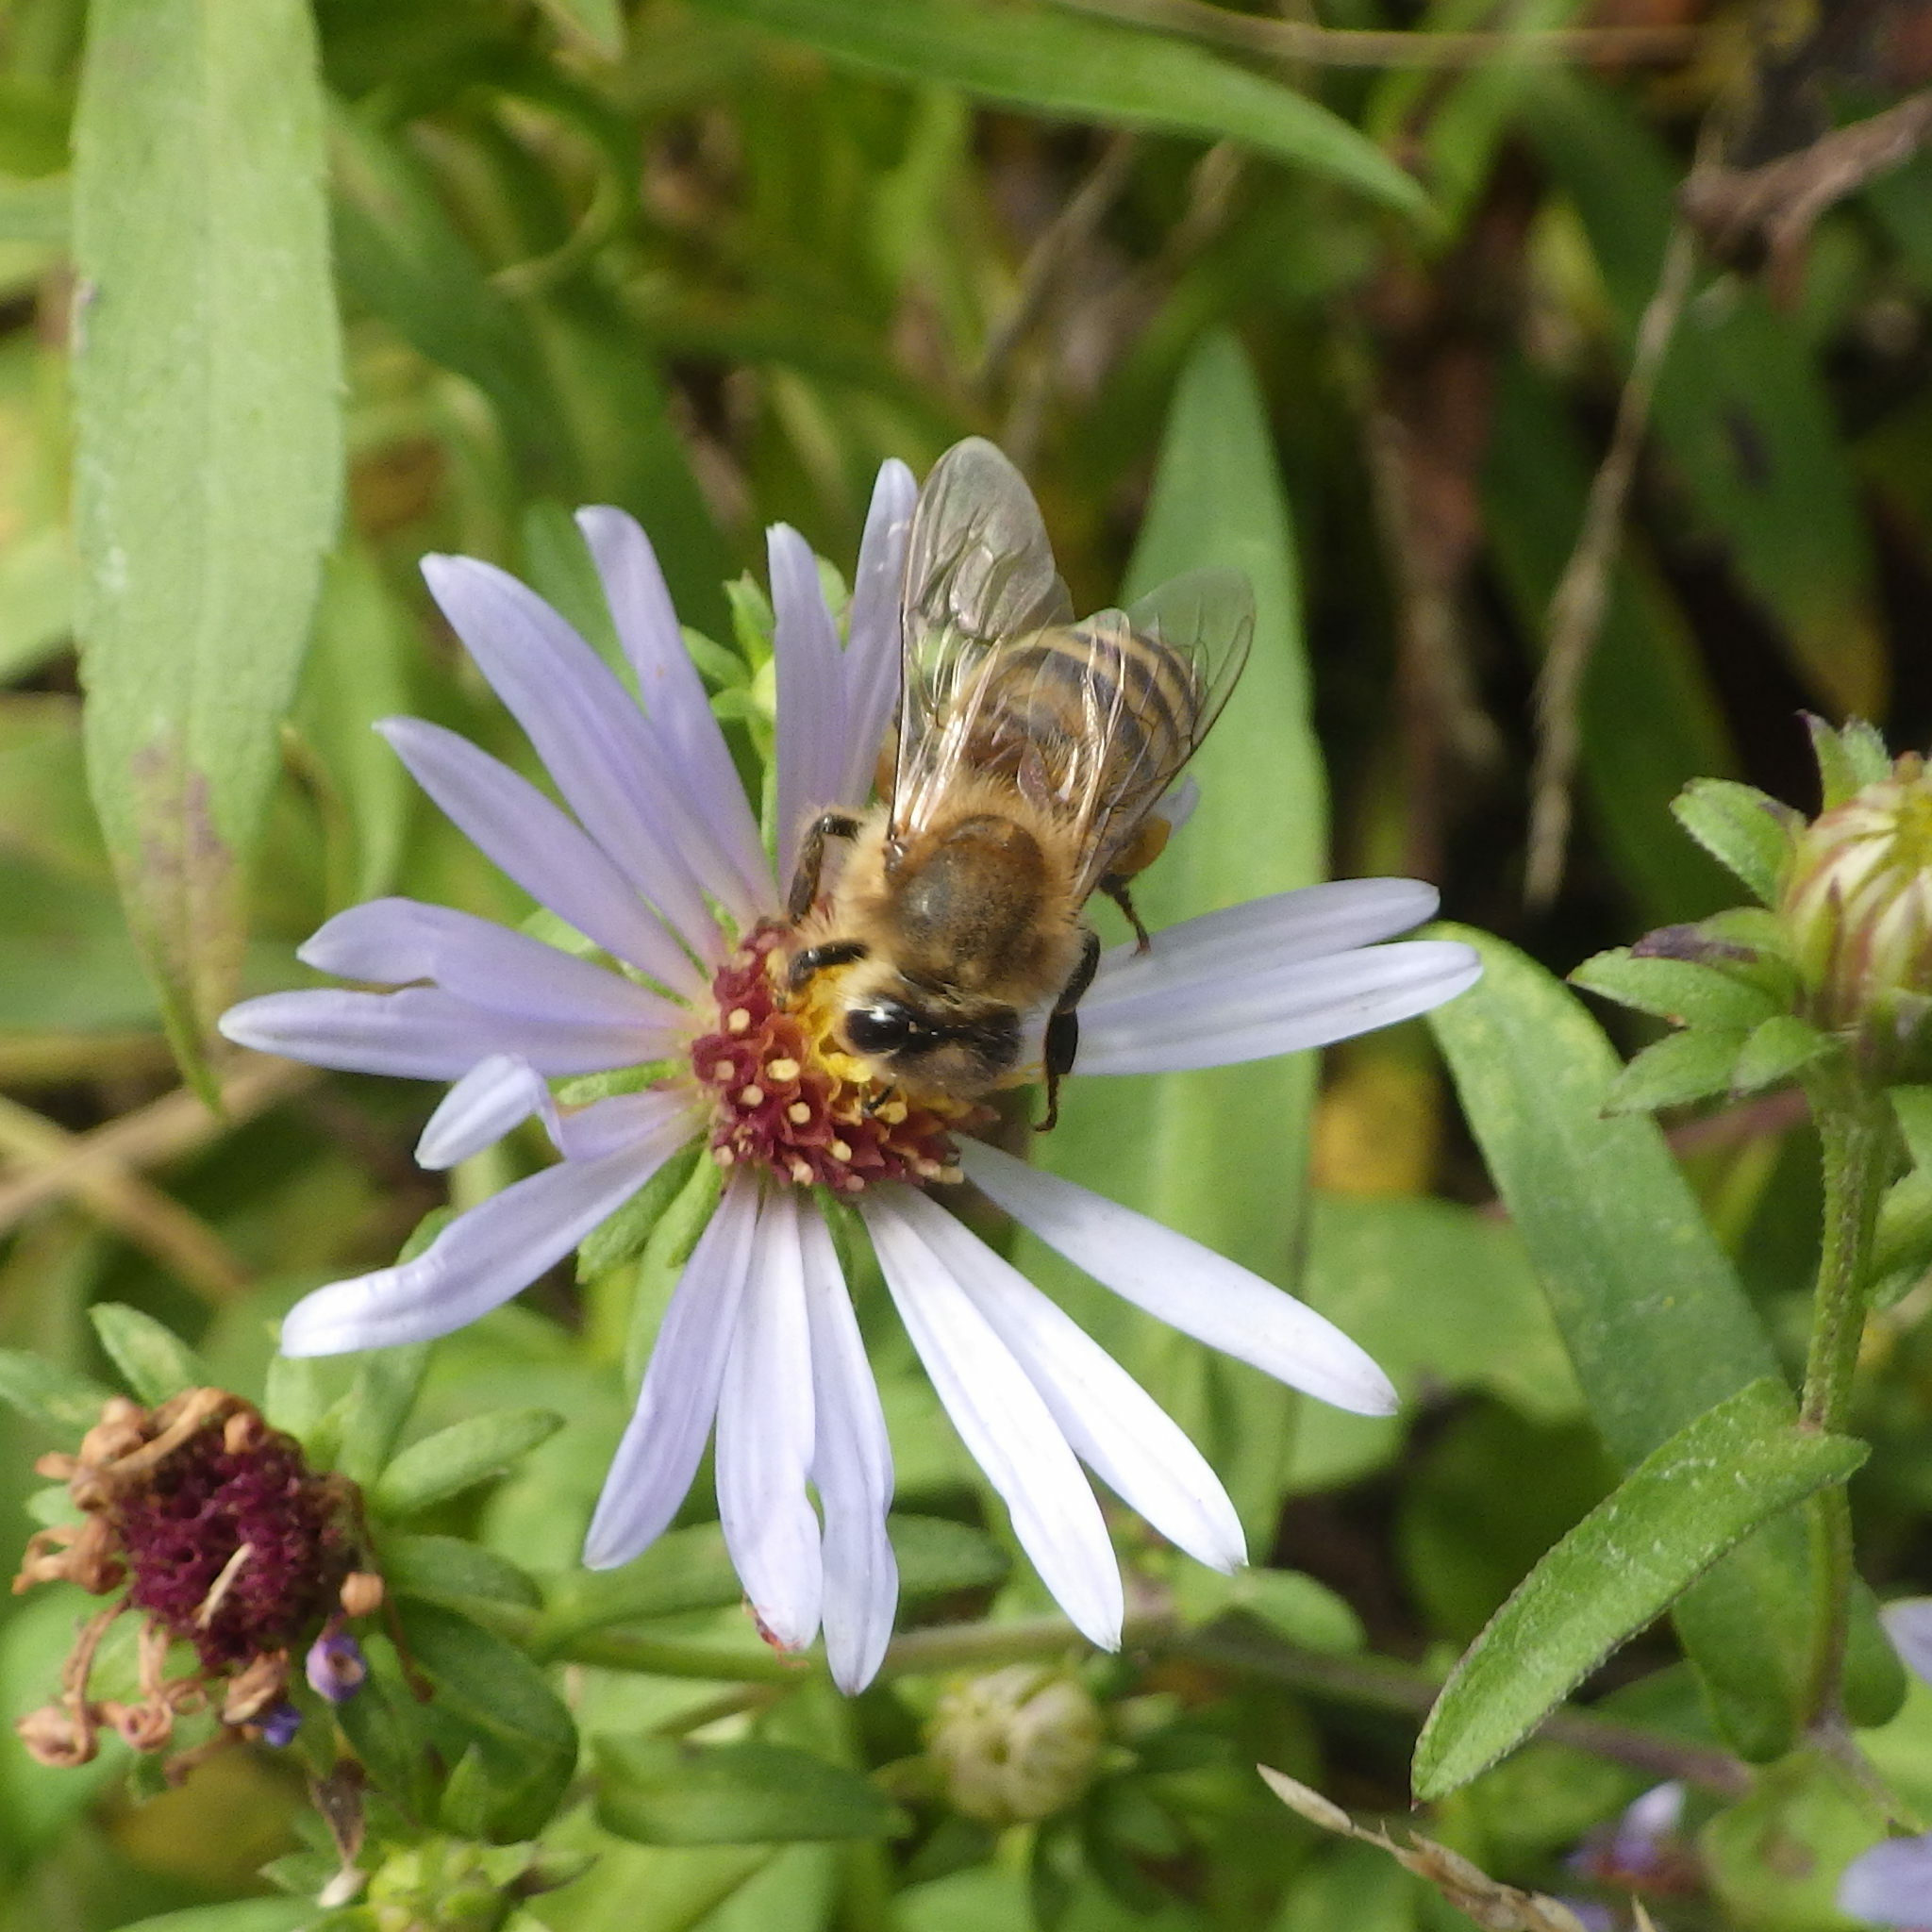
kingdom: Animalia
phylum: Arthropoda
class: Insecta
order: Hymenoptera
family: Apidae
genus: Apis
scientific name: Apis mellifera
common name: Honey bee
